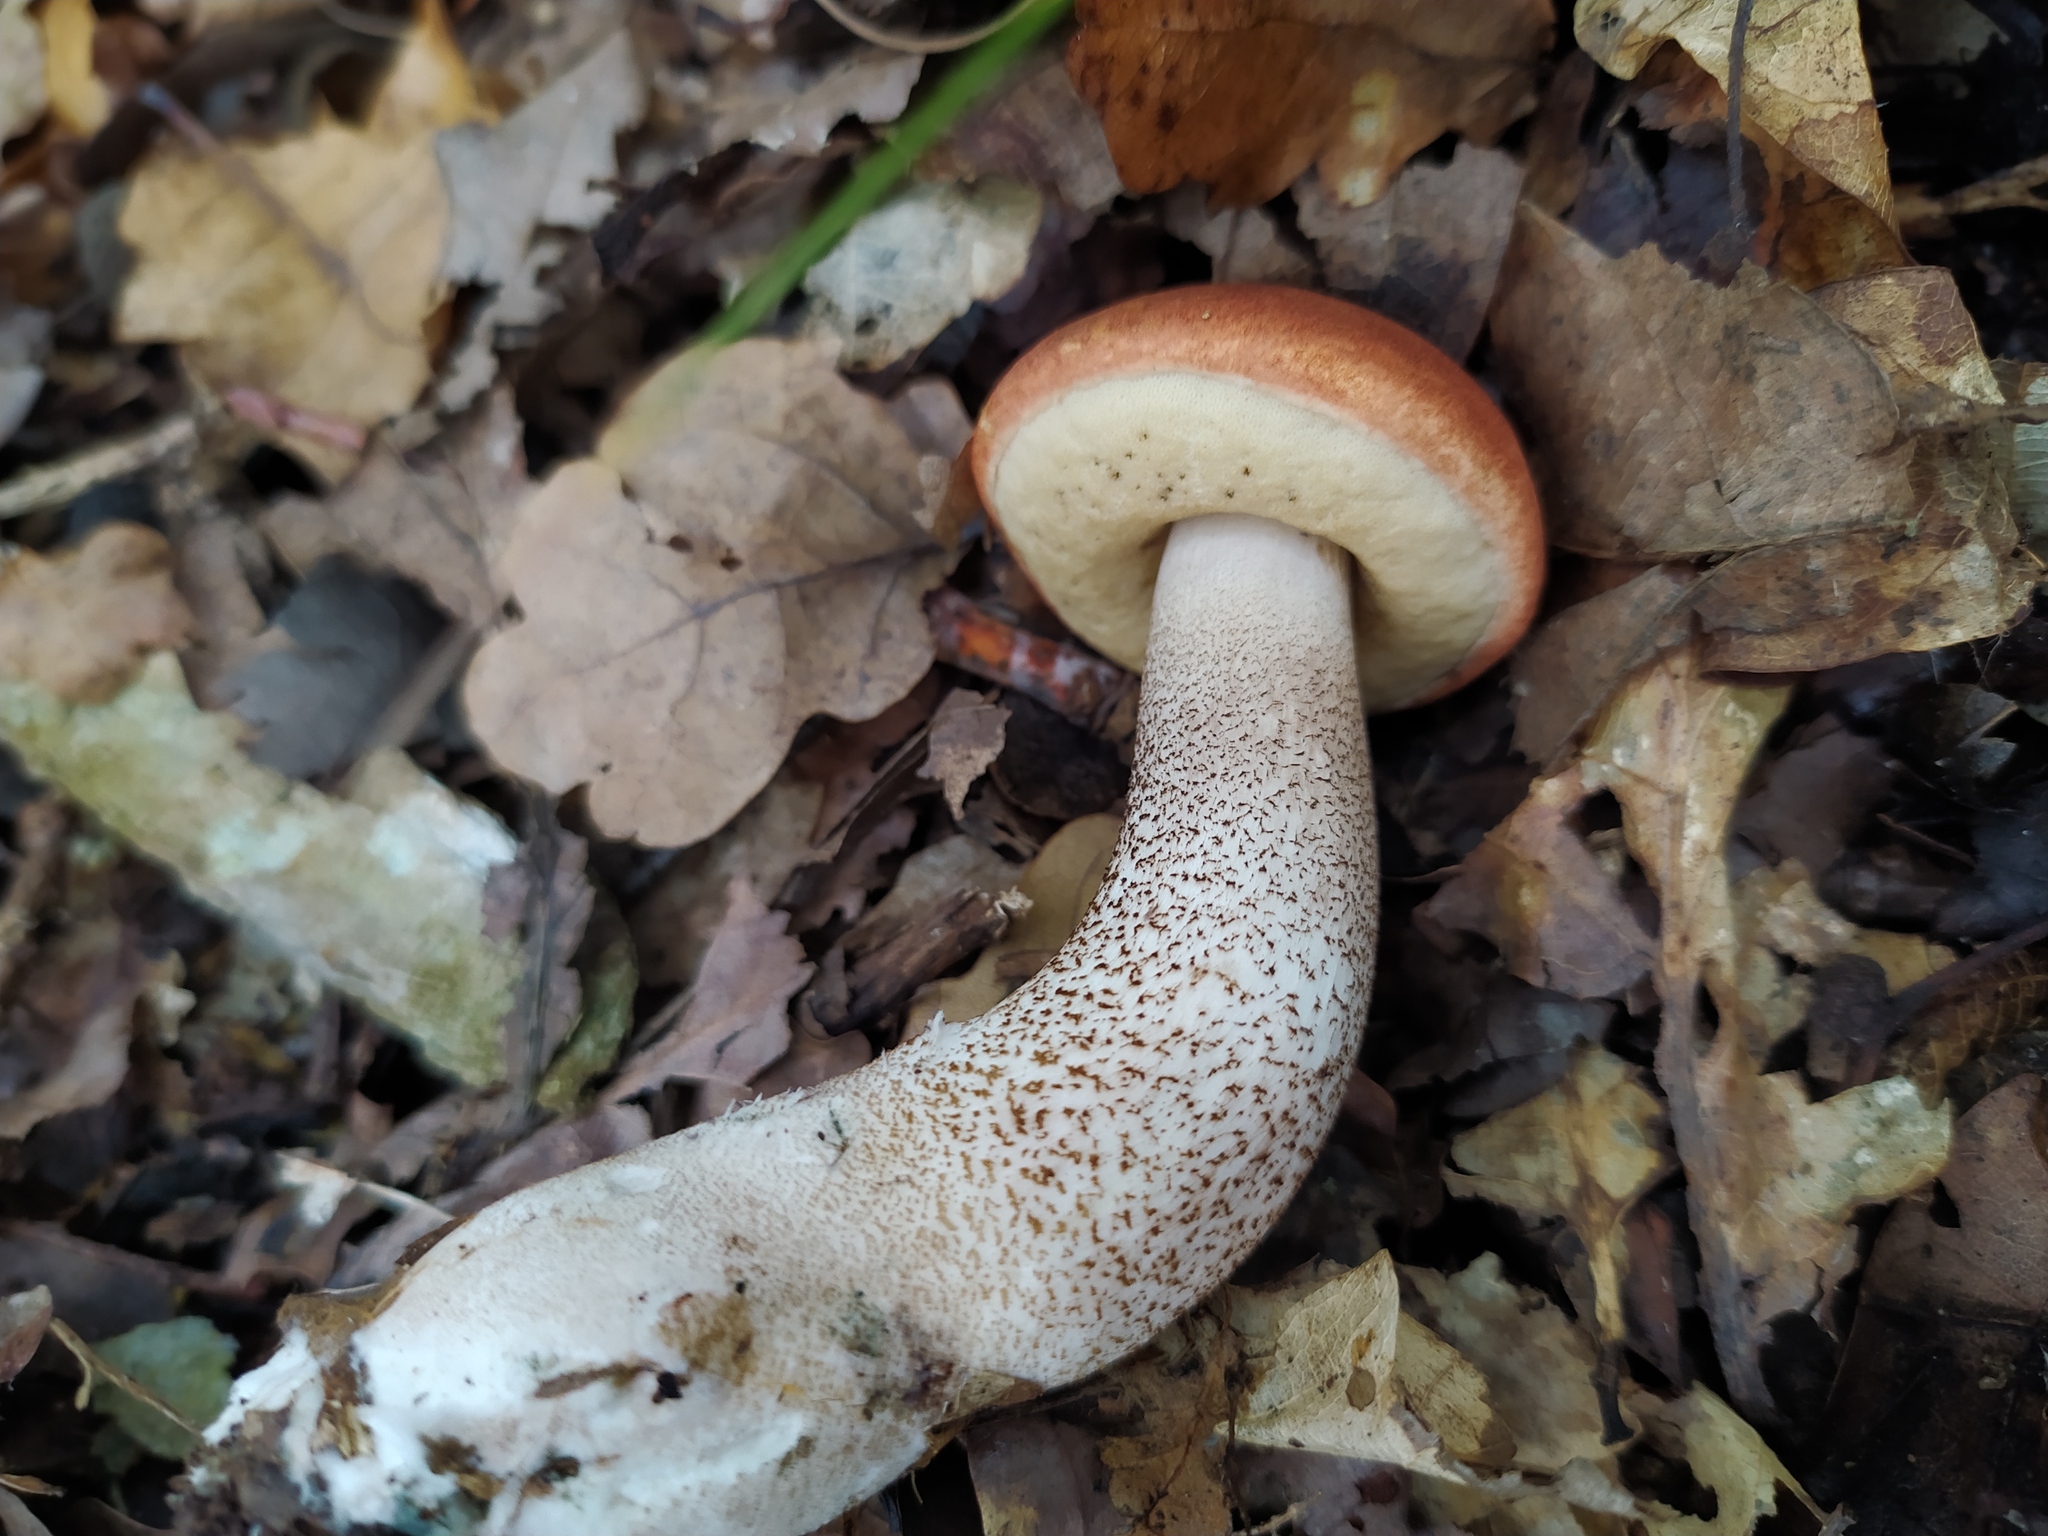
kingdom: Fungi
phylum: Basidiomycota
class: Agaricomycetes
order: Boletales
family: Boletaceae
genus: Leccinum
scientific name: Leccinum versipelle
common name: Orange birch bolete
